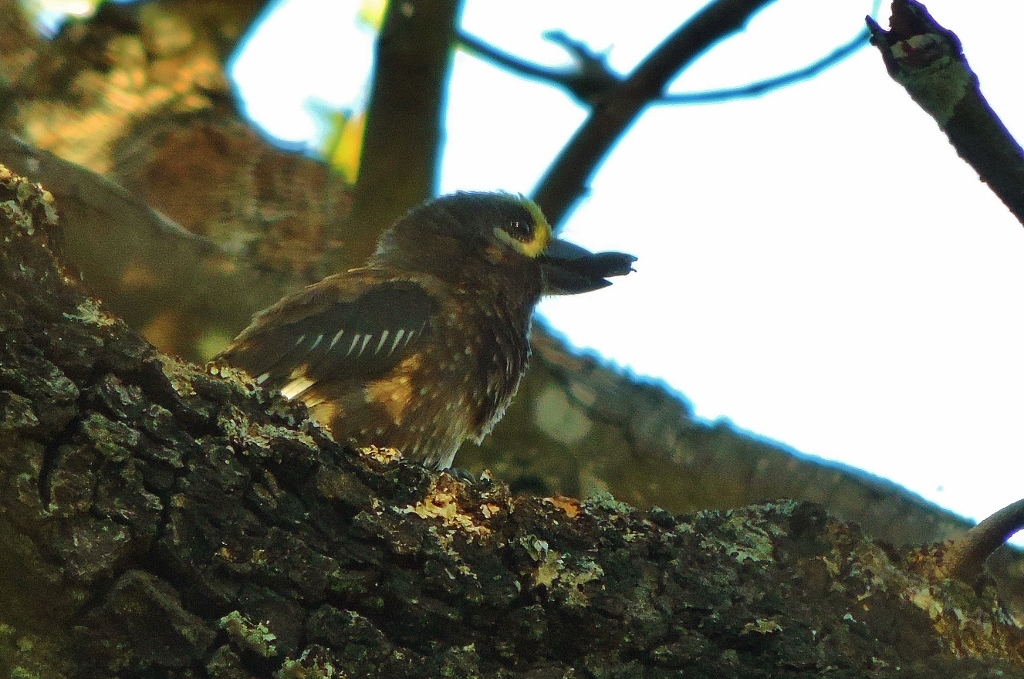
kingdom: Animalia
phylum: Chordata
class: Aves
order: Piciformes
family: Lybiidae
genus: Stactolaema
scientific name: Stactolaema whytii
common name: Whyte's barbet
